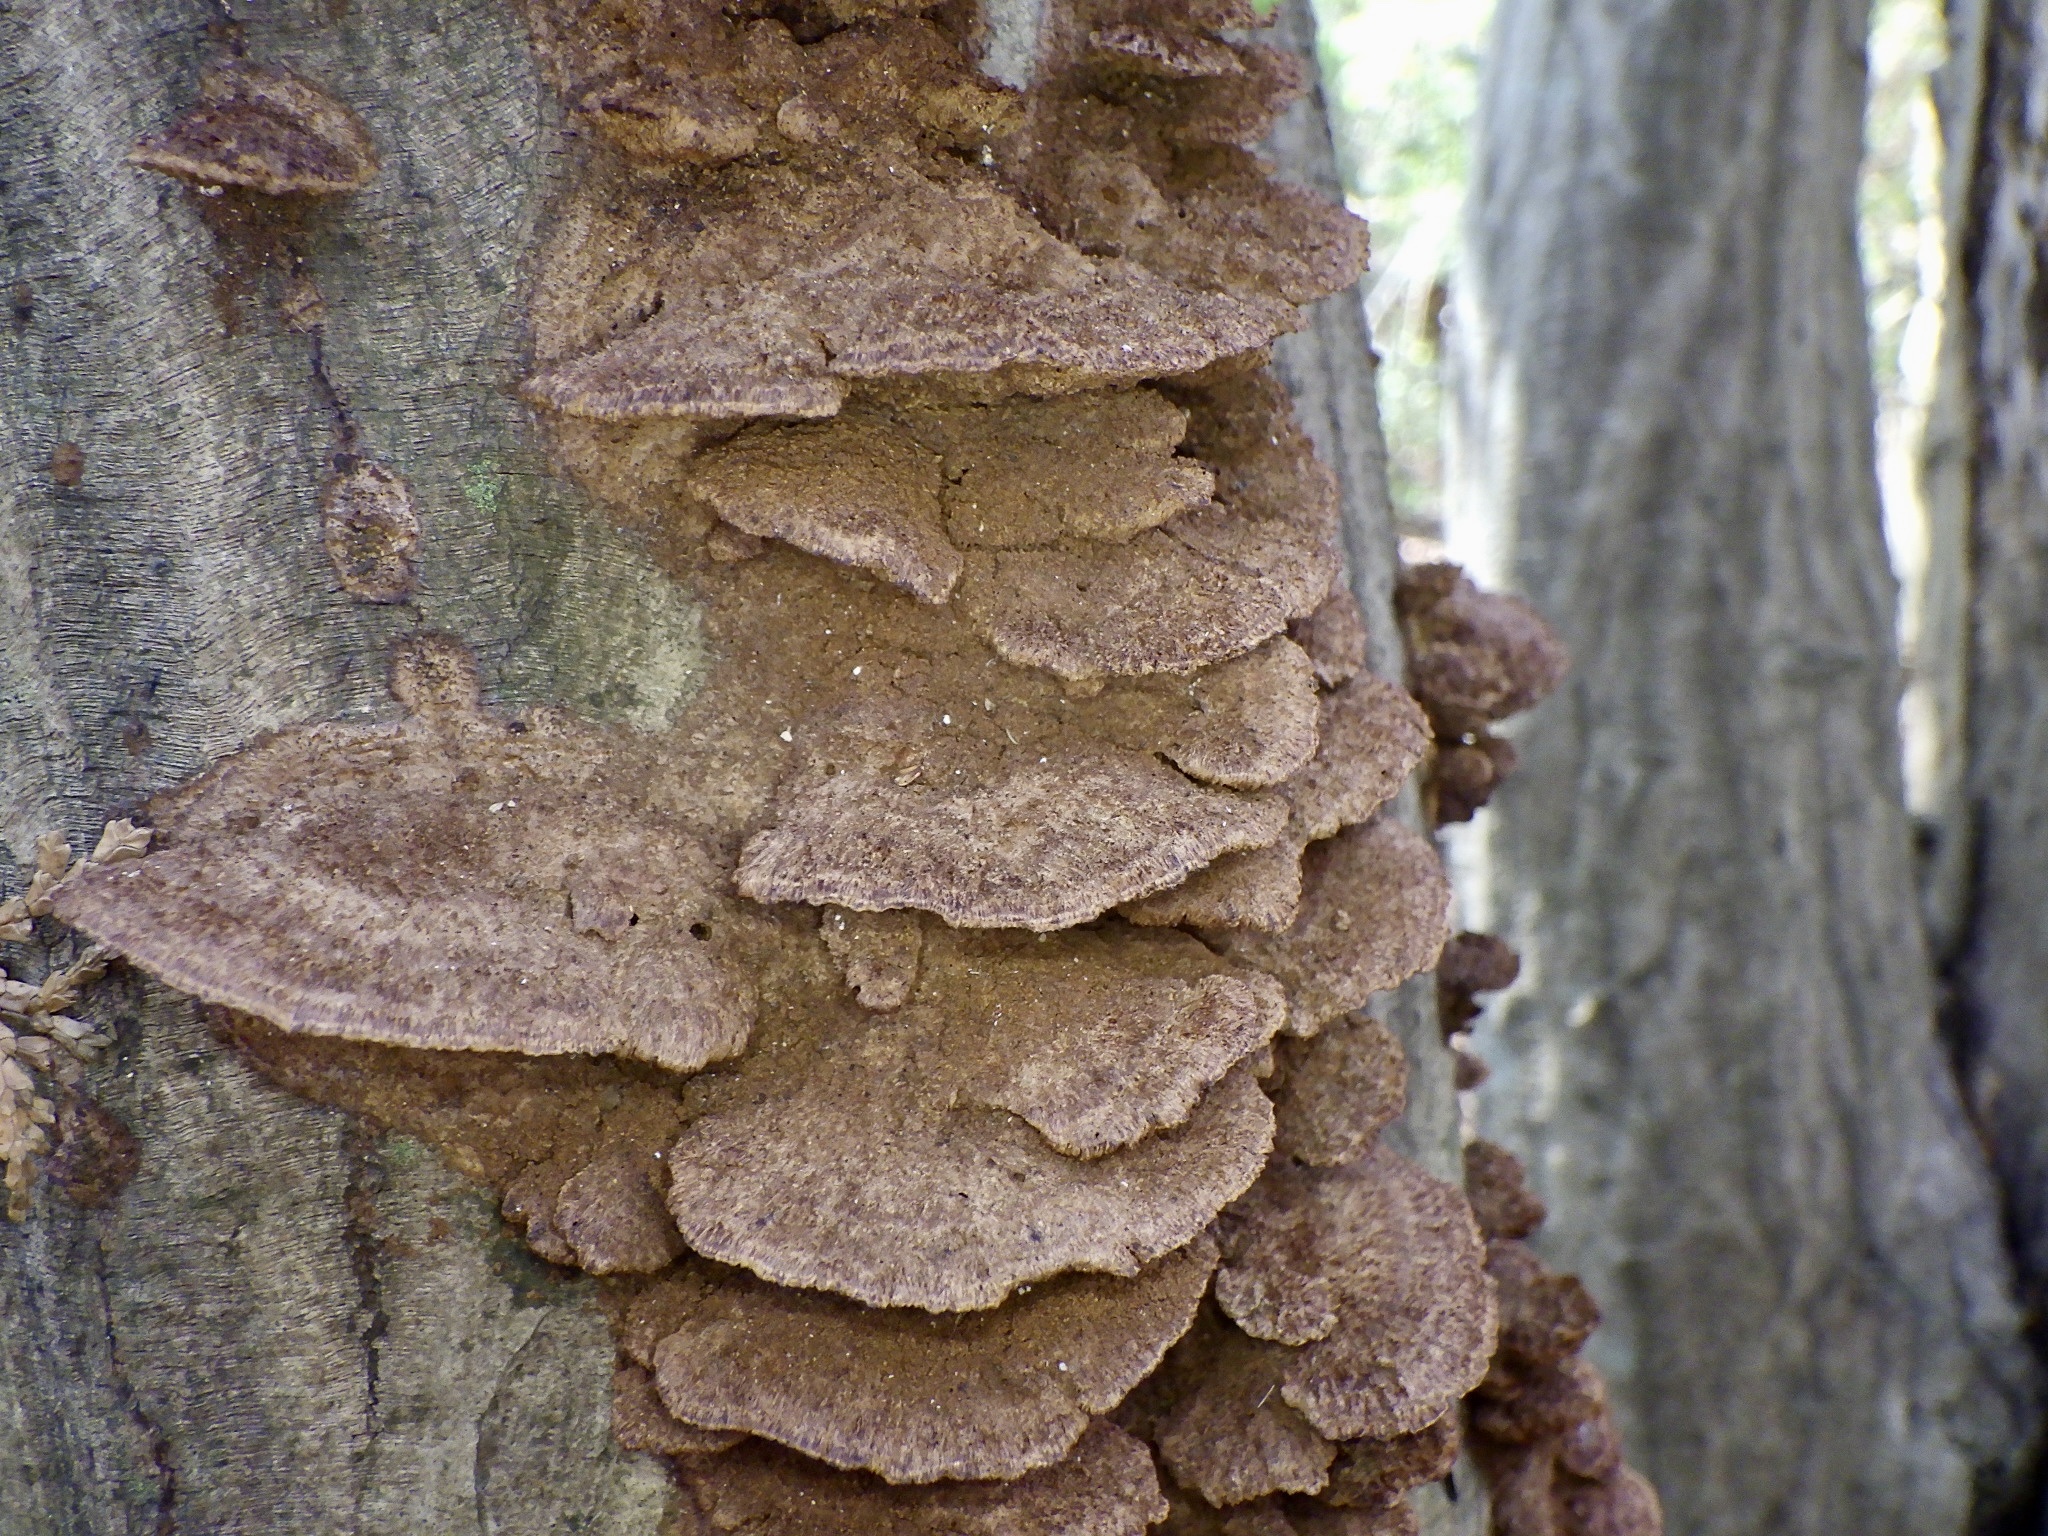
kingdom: Fungi
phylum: Basidiomycota
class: Agaricomycetes
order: Hymenochaetales
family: Hymenochaetaceae
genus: Phellinus
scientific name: Phellinus gilvus
